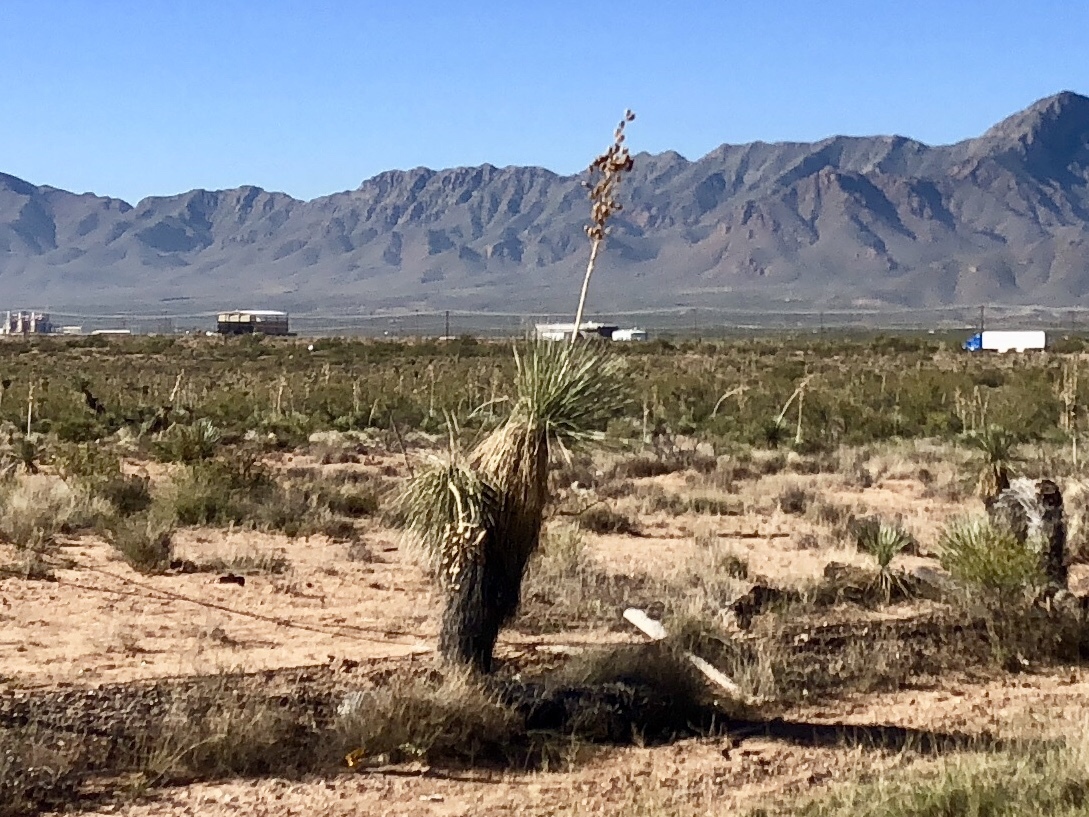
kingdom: Plantae
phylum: Tracheophyta
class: Liliopsida
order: Asparagales
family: Asparagaceae
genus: Yucca
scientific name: Yucca elata
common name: Palmella
